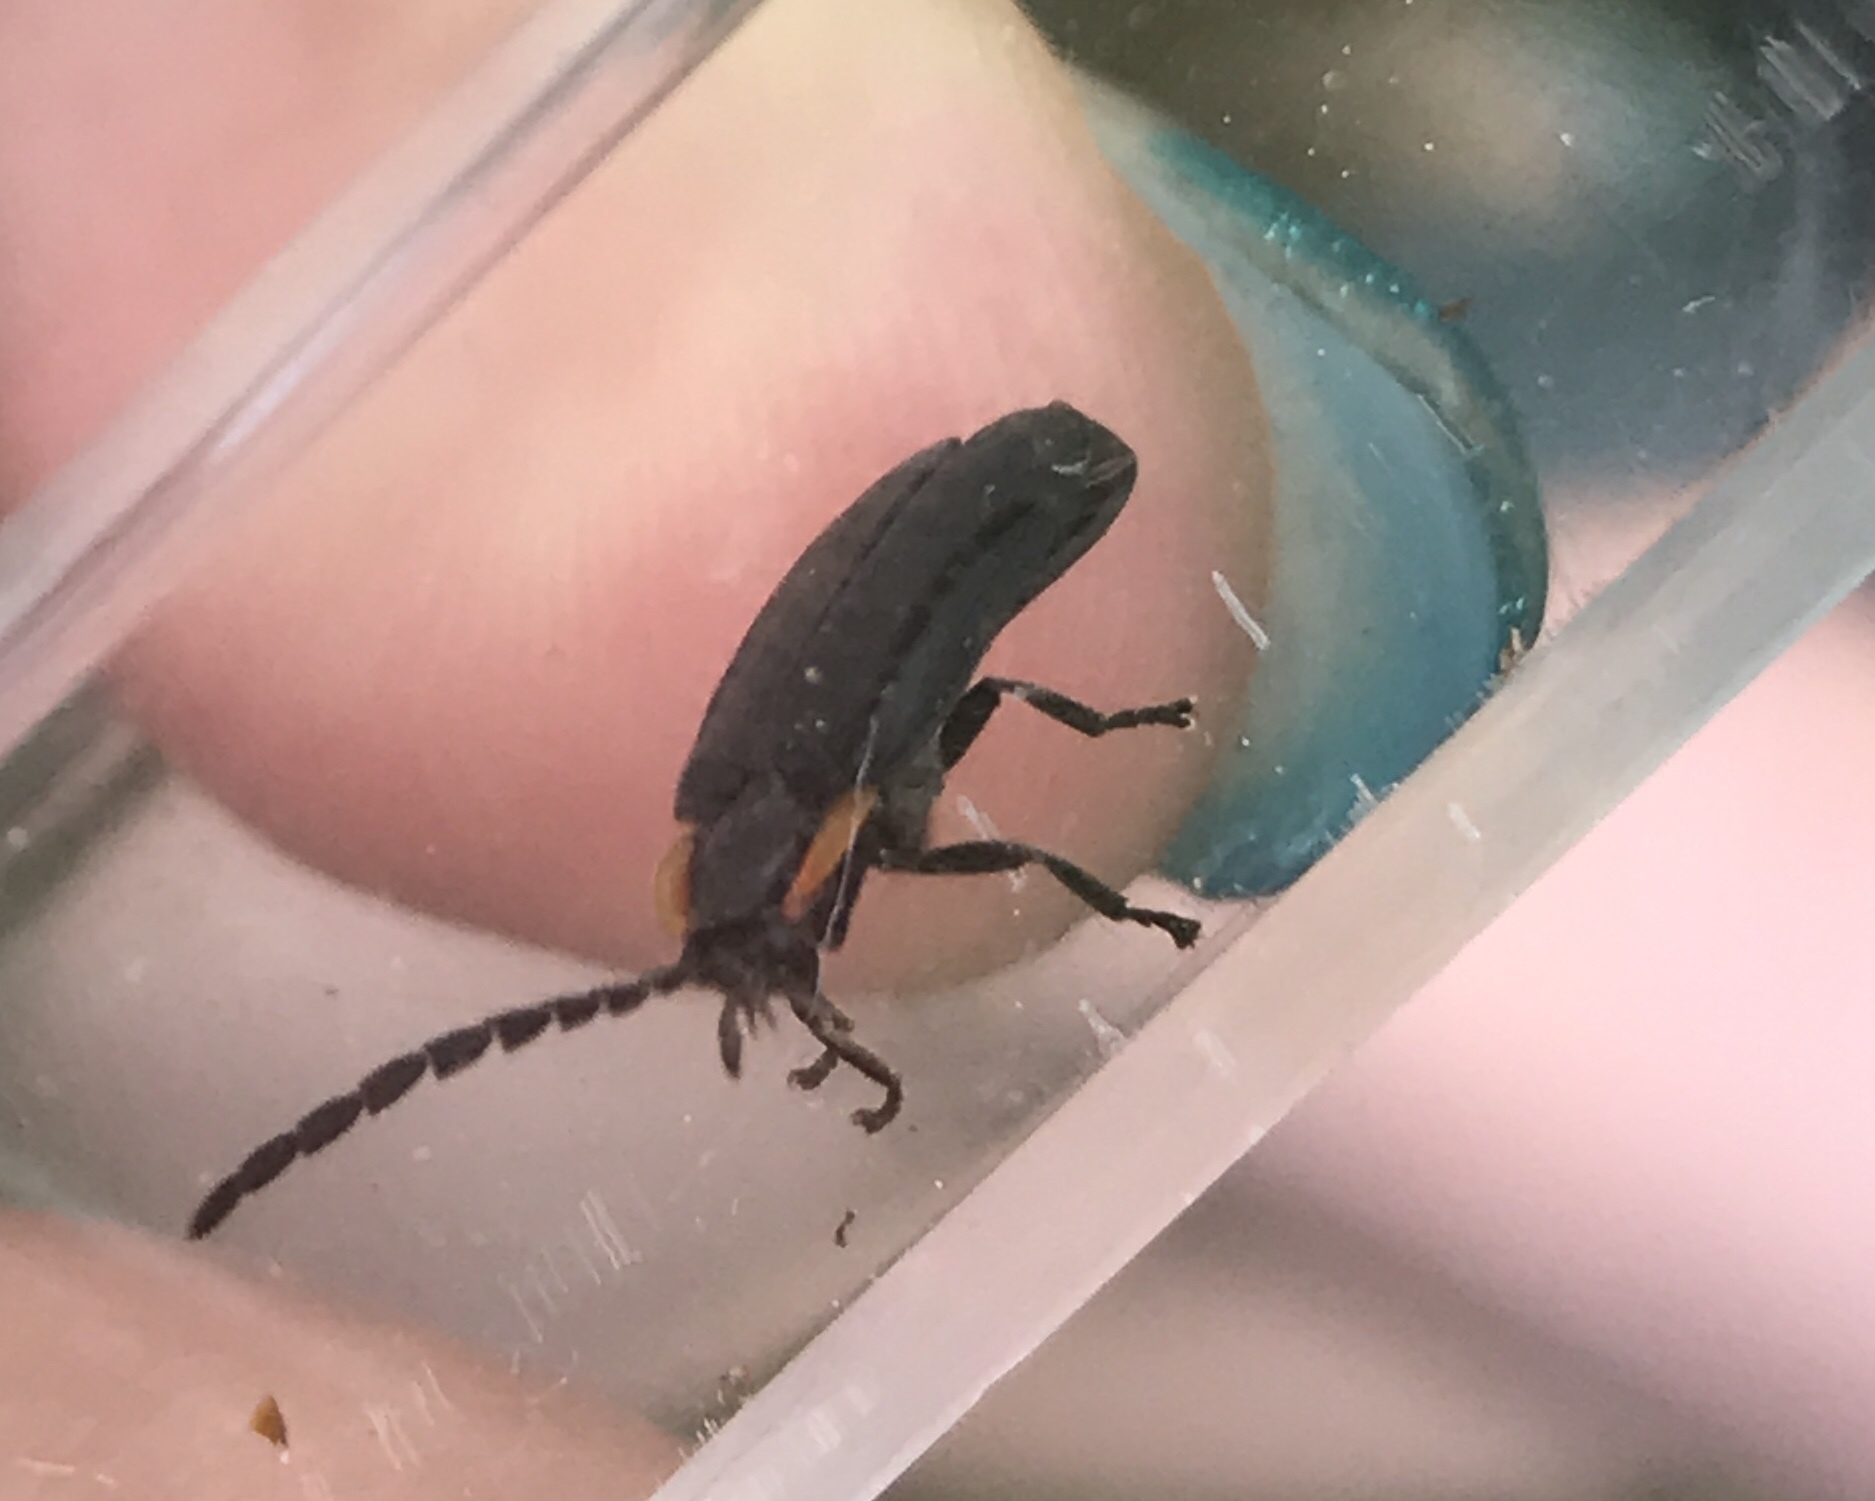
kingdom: Animalia
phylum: Arthropoda
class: Insecta
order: Coleoptera
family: Lampyridae
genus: Lucidota
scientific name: Lucidota atra
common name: Black firefly
